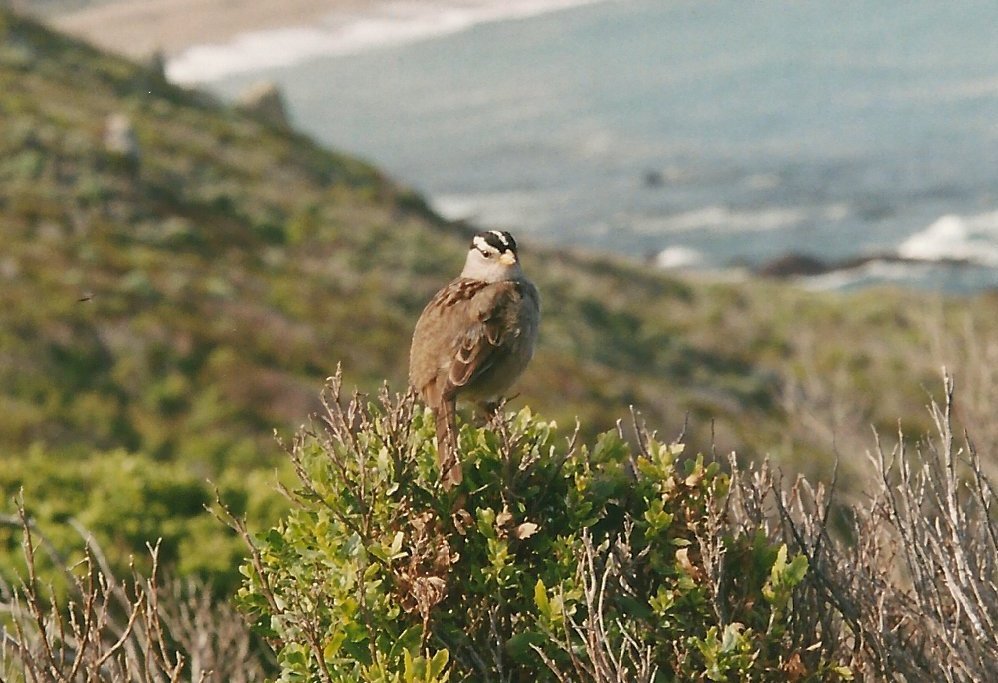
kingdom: Animalia
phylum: Chordata
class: Aves
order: Passeriformes
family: Passerellidae
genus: Zonotrichia
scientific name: Zonotrichia leucophrys
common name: White-crowned sparrow
